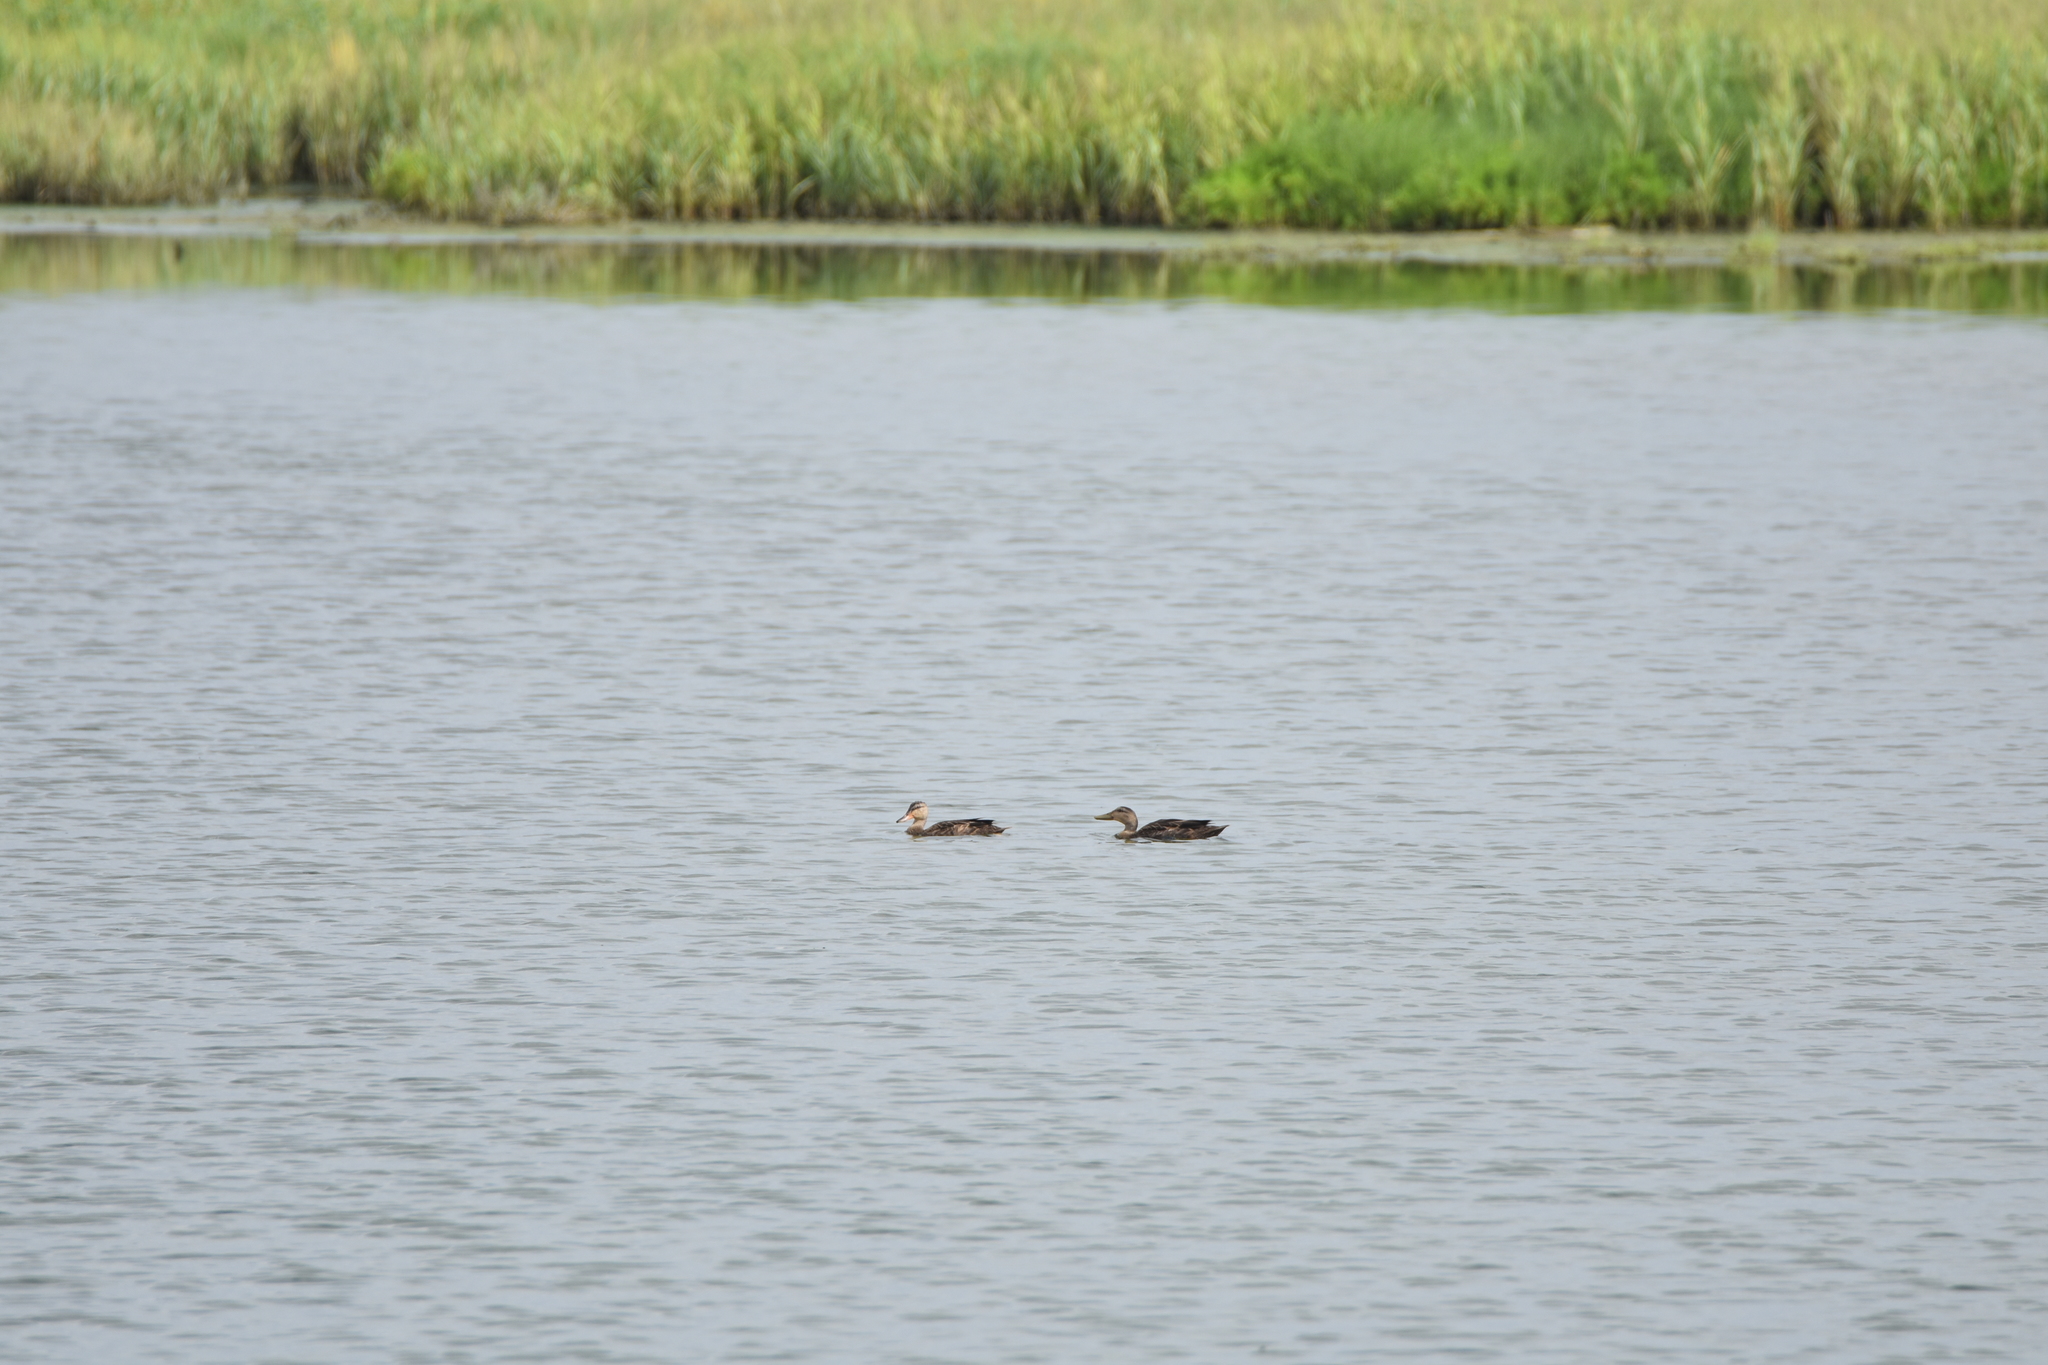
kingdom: Animalia
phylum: Chordata
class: Aves
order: Anseriformes
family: Anatidae
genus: Anas
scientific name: Anas fulvigula
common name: Mottled duck
